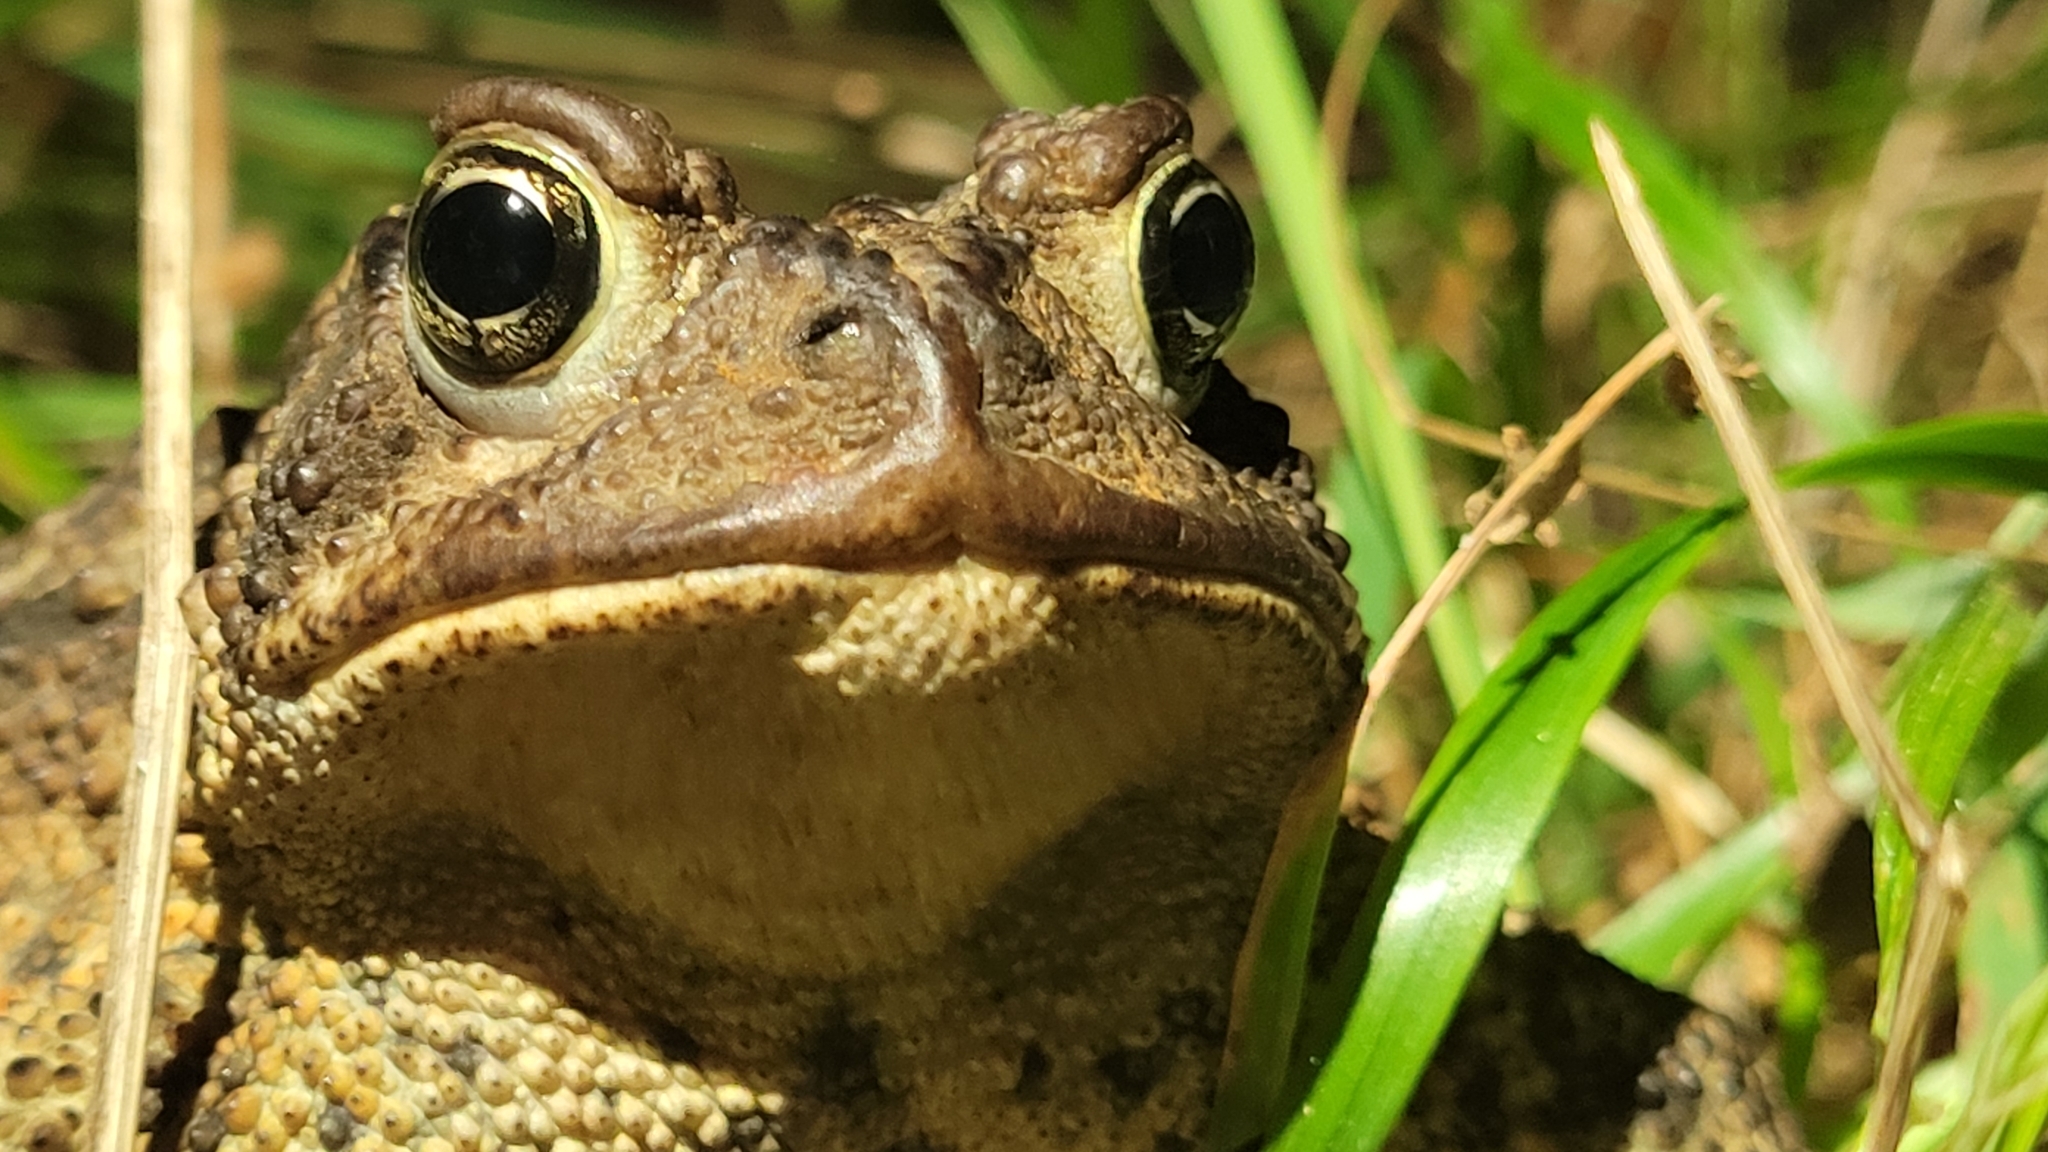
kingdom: Animalia
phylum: Chordata
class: Amphibia
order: Anura
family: Bufonidae
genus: Anaxyrus
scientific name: Anaxyrus americanus
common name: American toad
